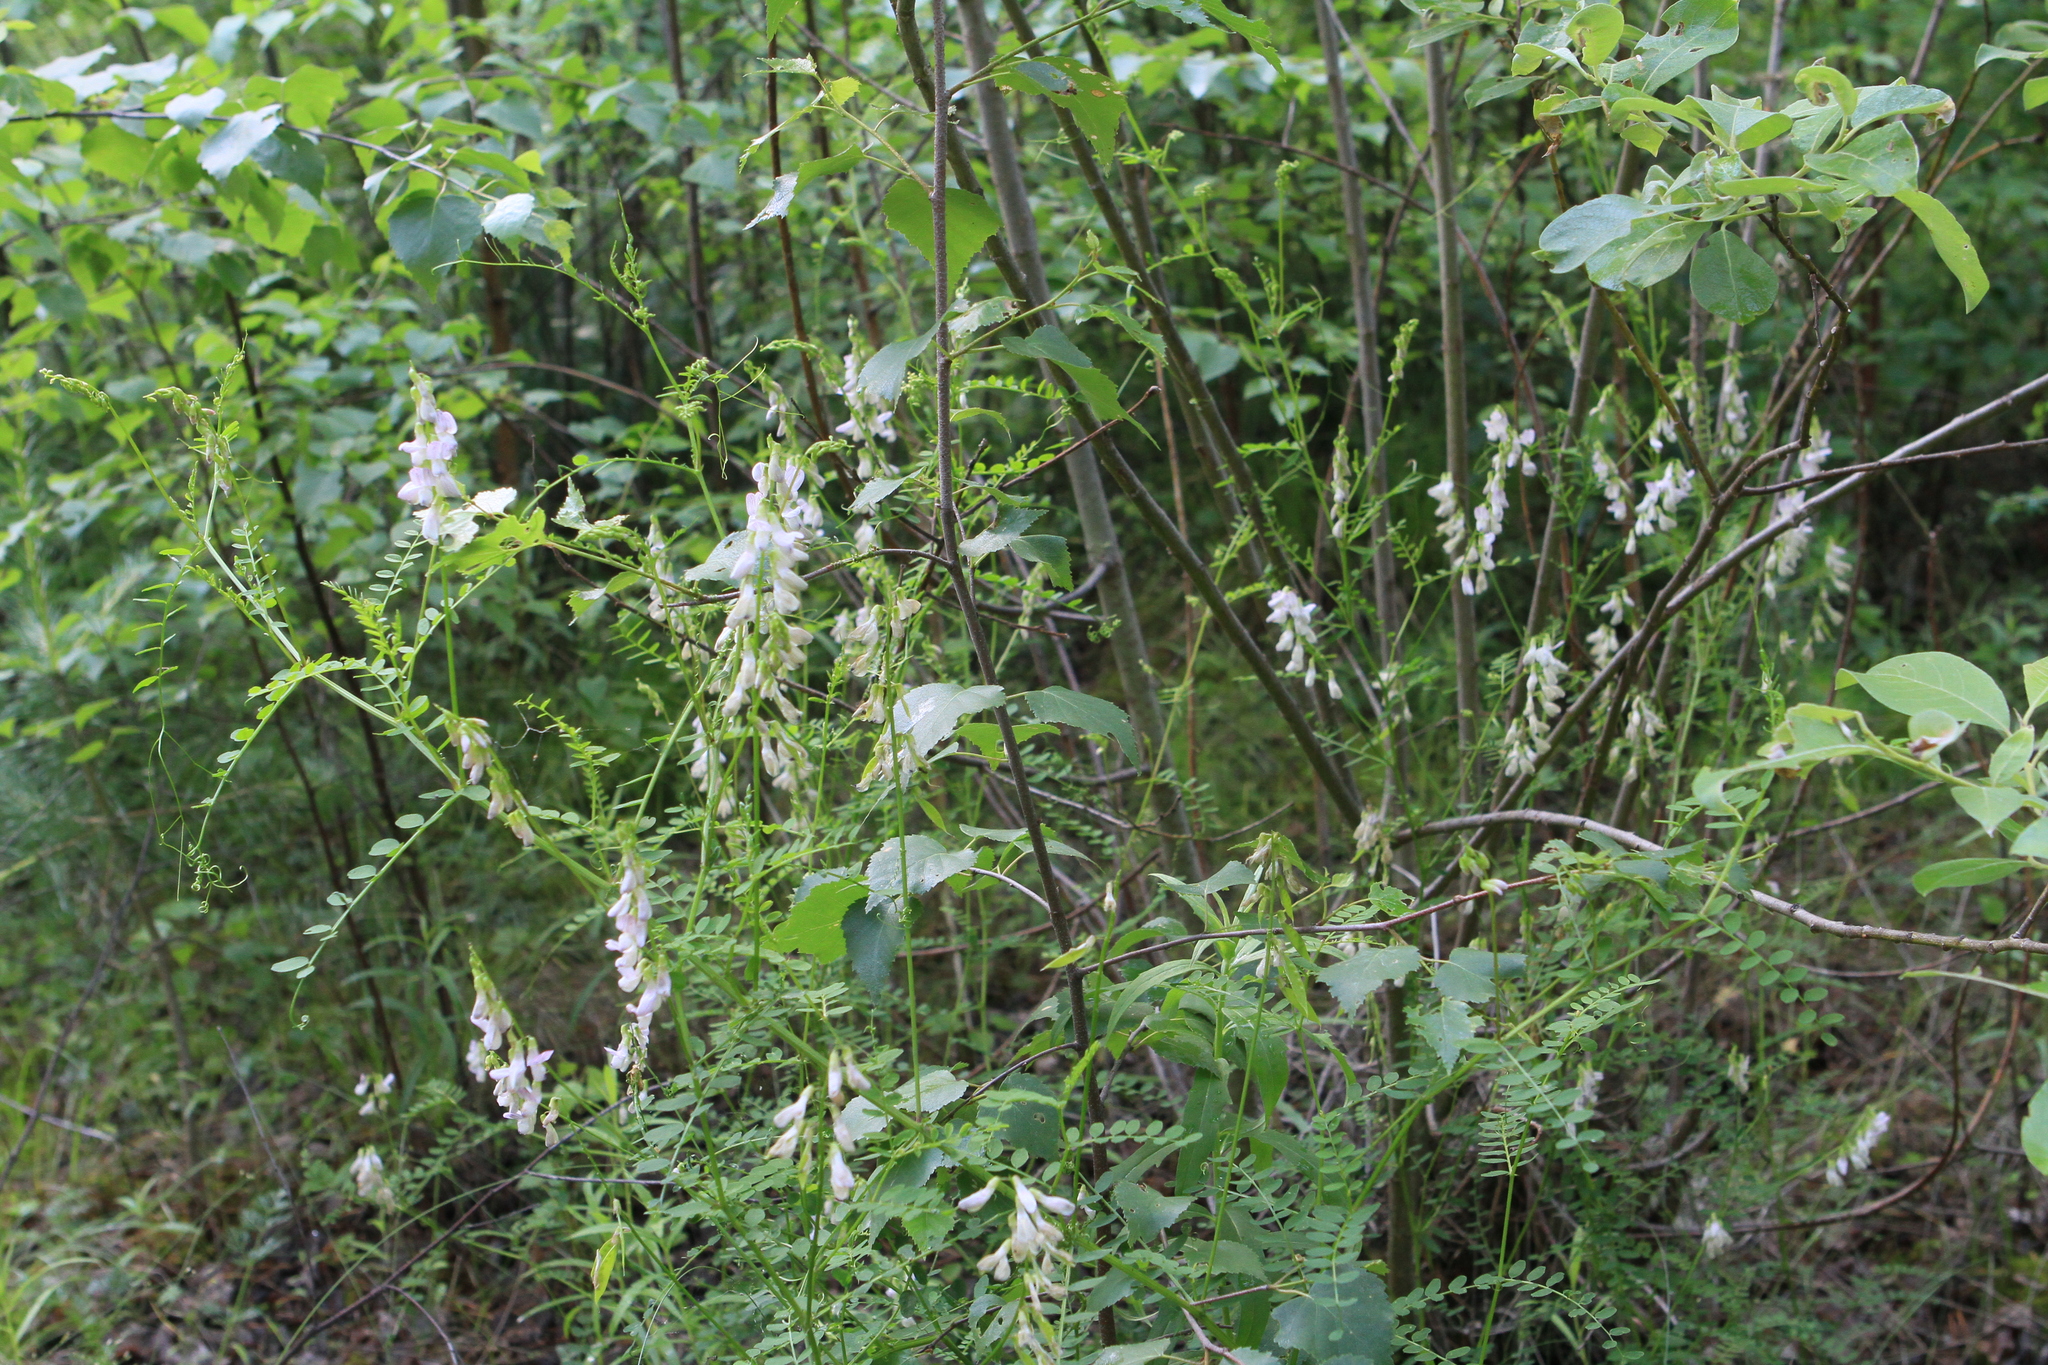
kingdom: Plantae
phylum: Tracheophyta
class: Magnoliopsida
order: Fabales
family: Fabaceae
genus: Vicia
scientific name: Vicia sylvatica
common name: Wood vetch
